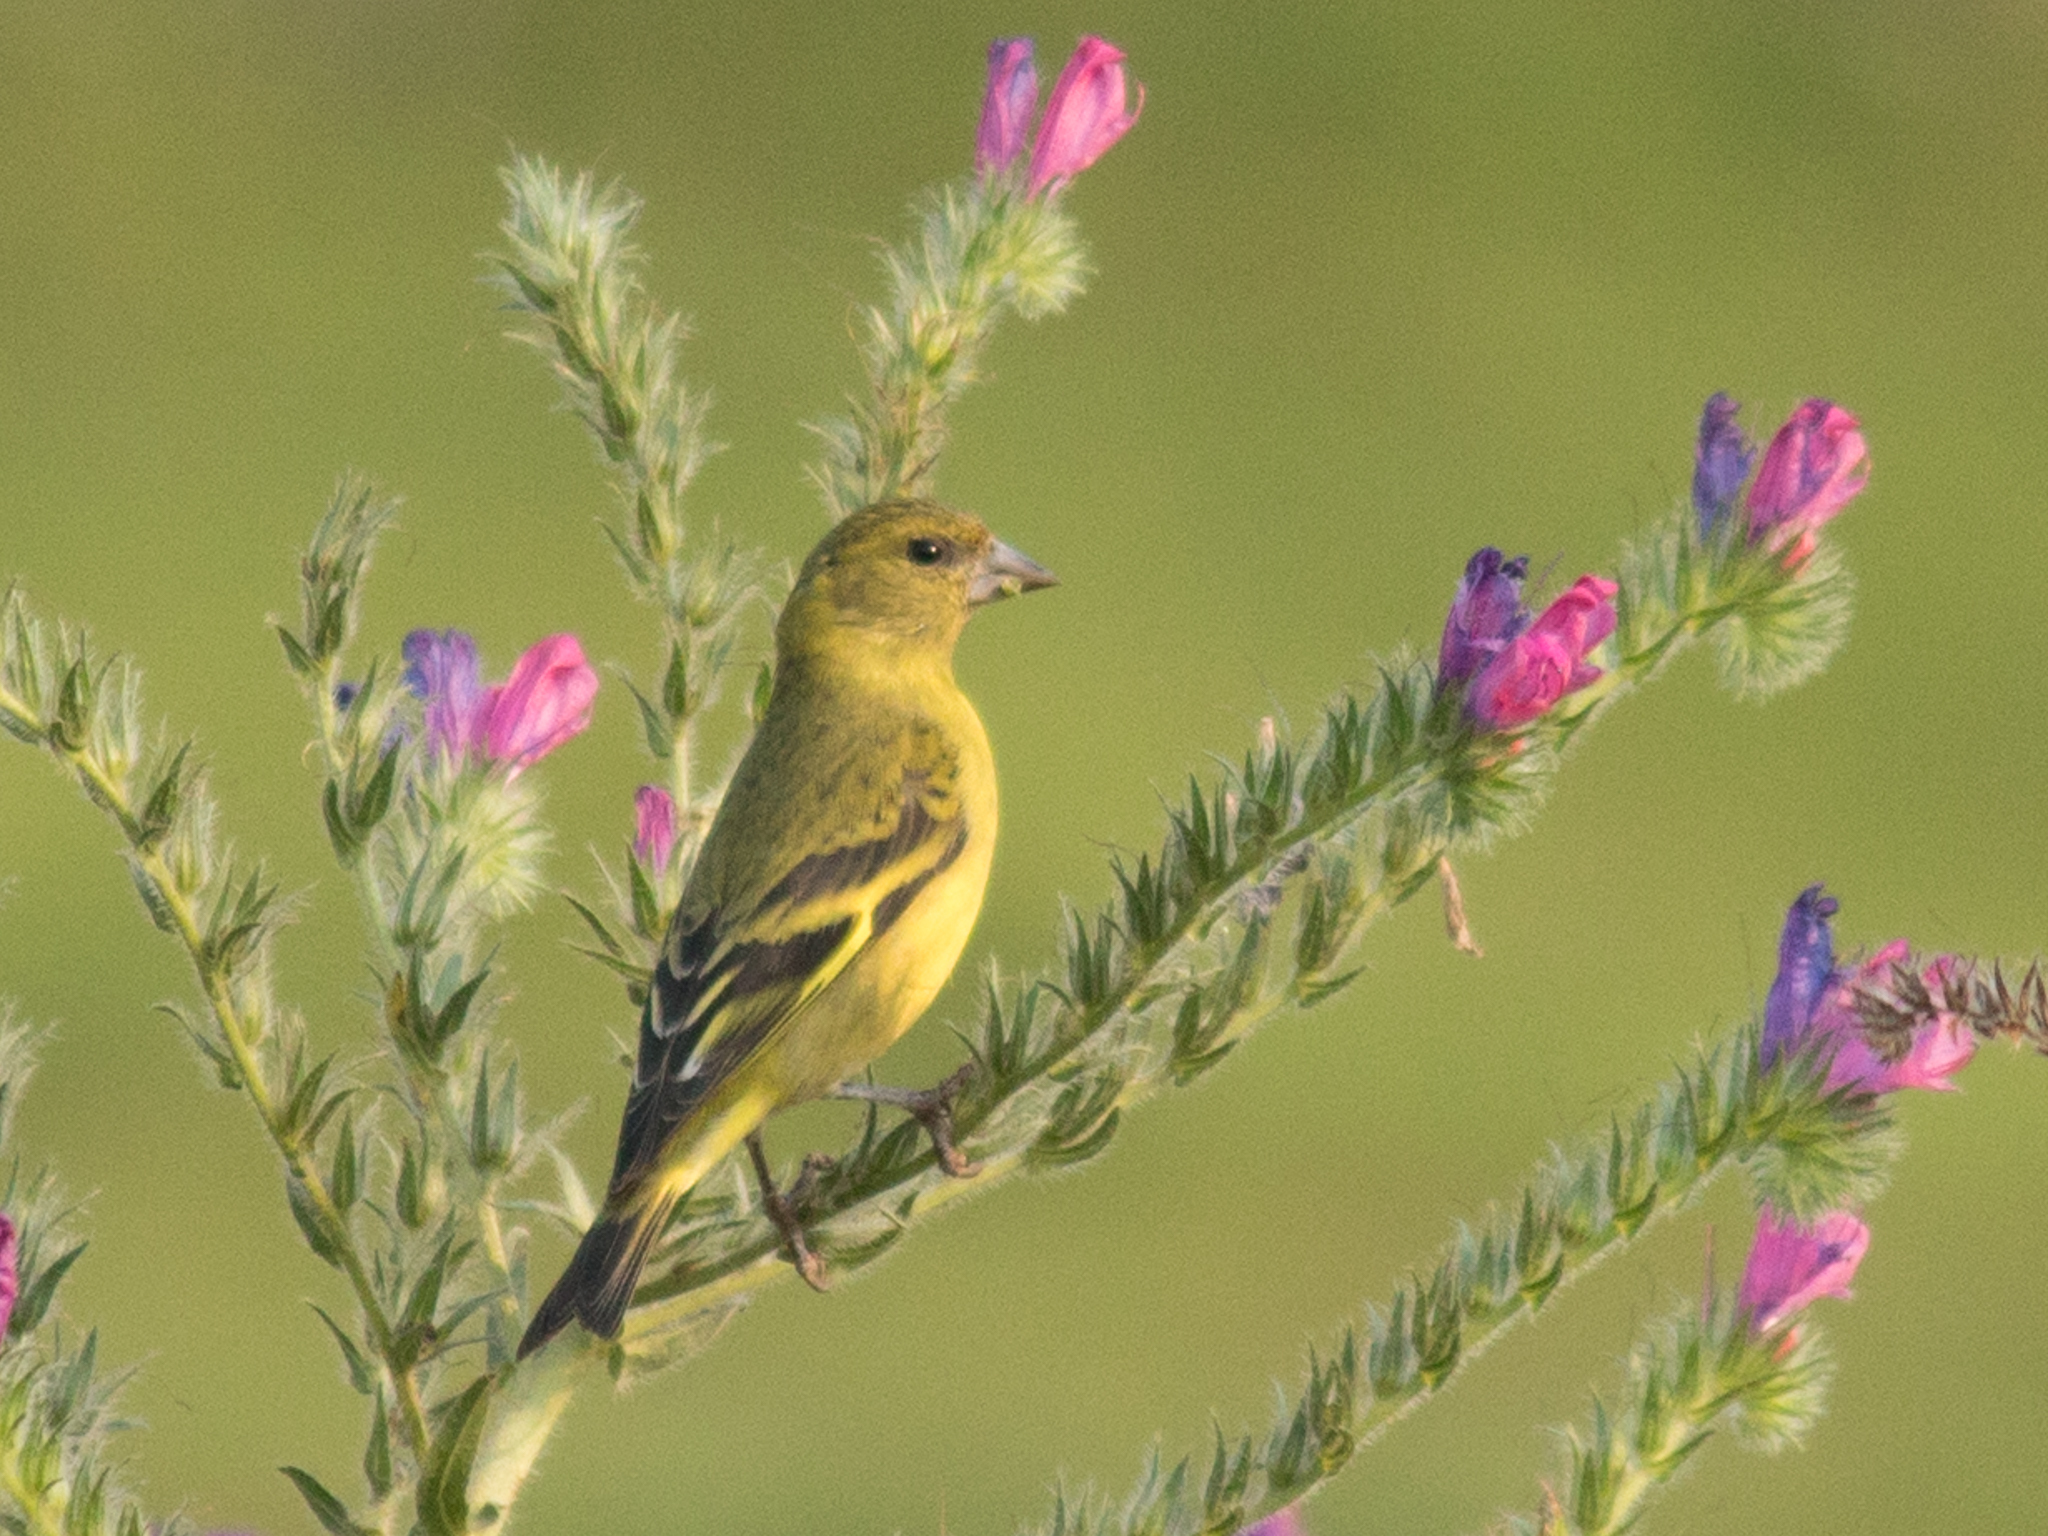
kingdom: Animalia
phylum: Chordata
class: Aves
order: Passeriformes
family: Fringillidae
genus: Spinus
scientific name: Spinus magellanicus
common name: Hooded siskin
